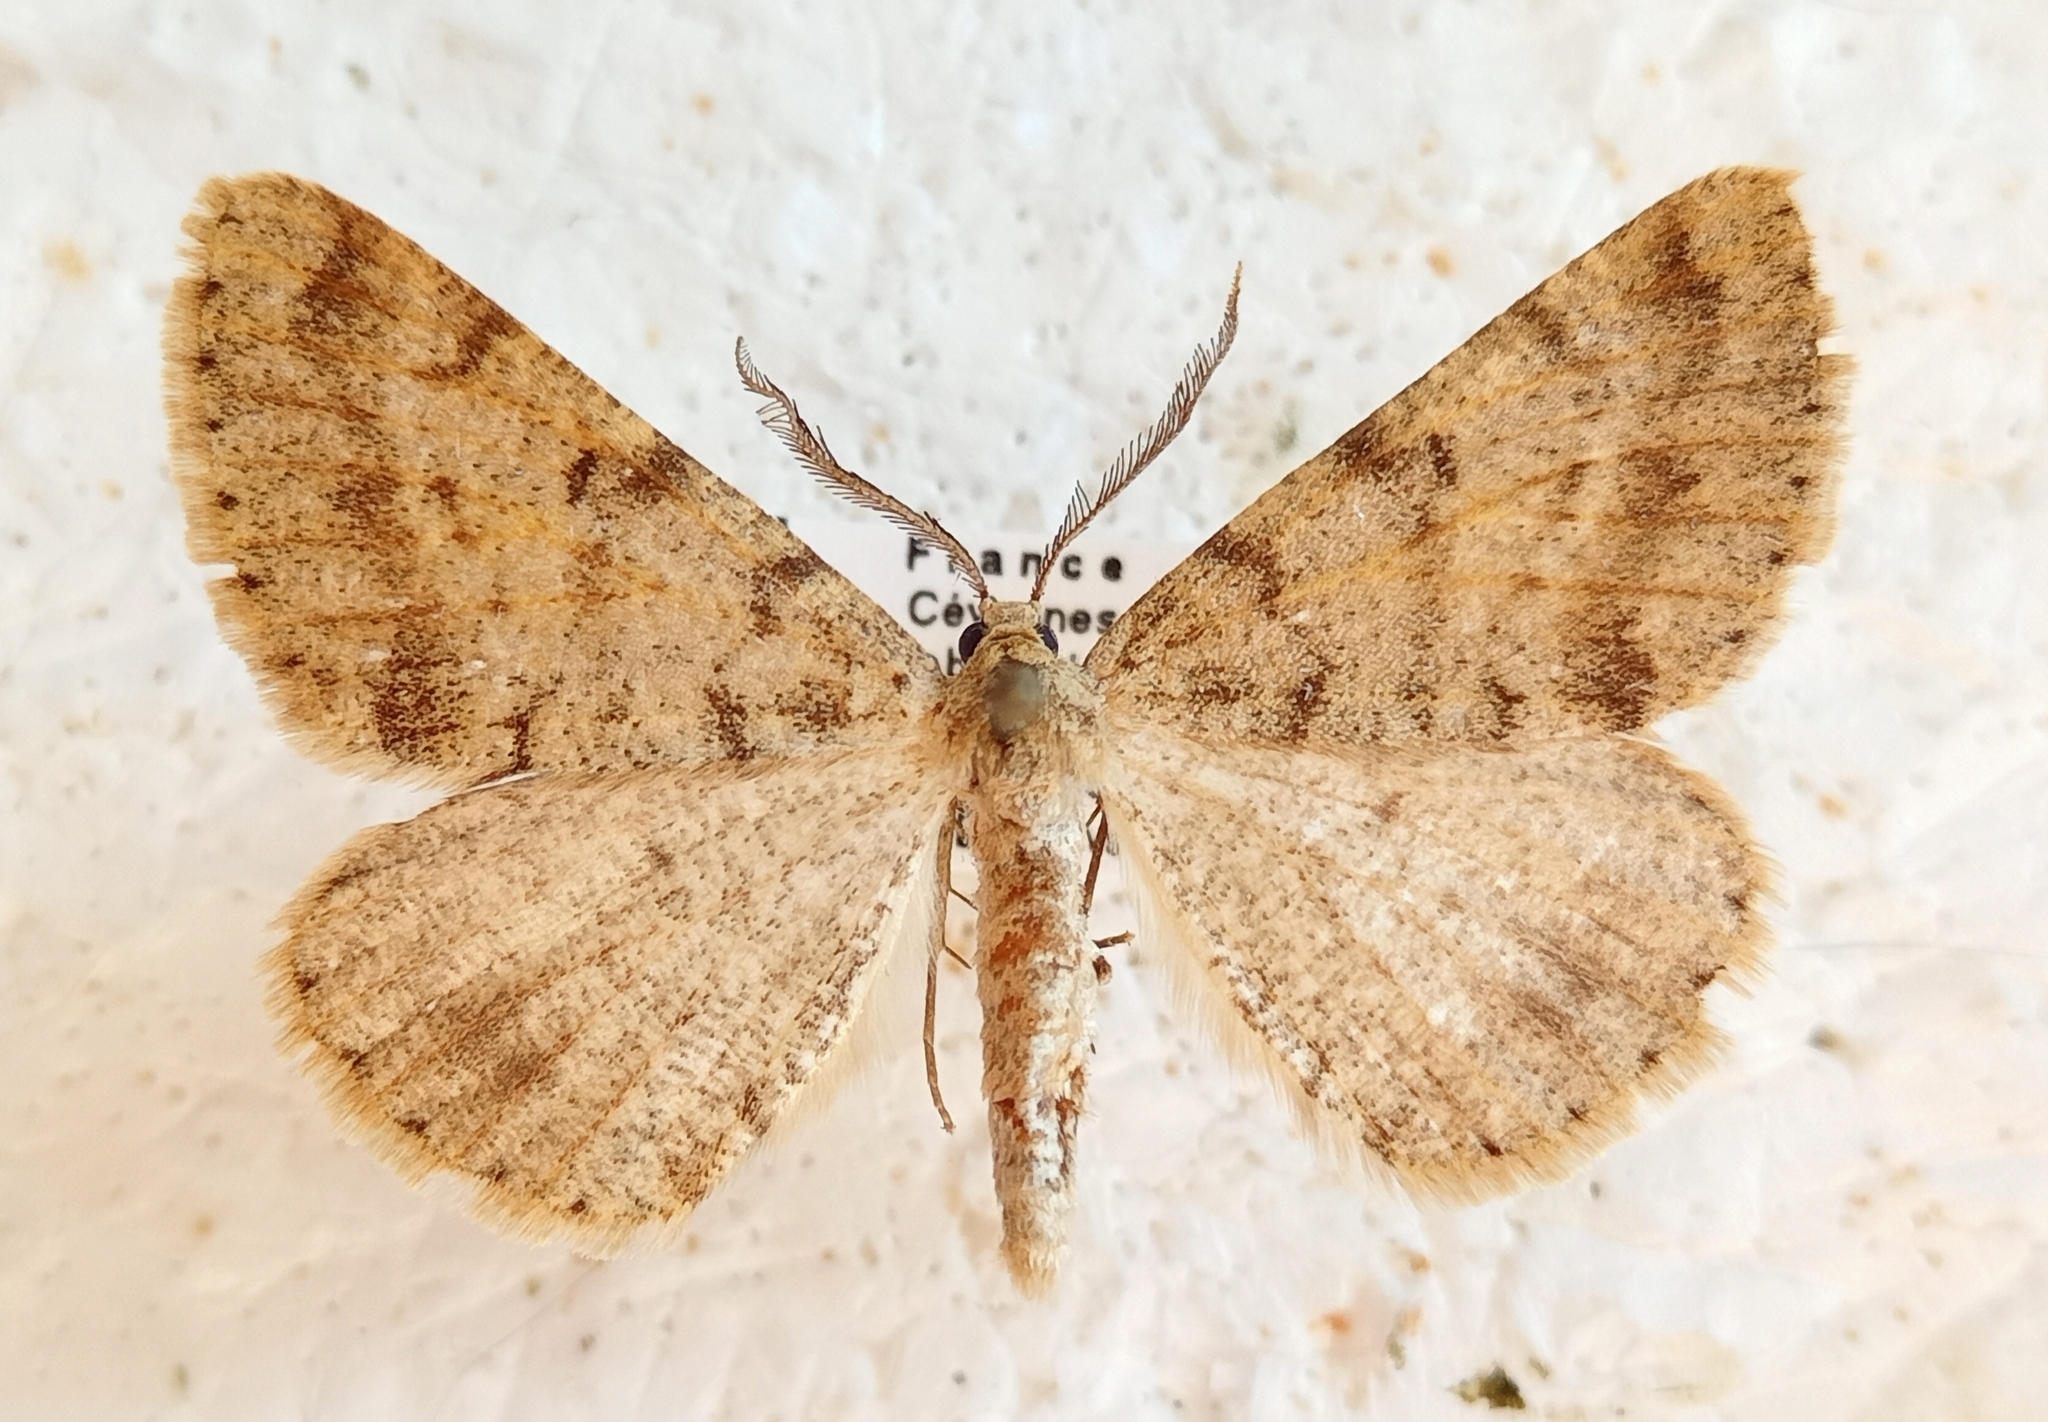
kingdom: Animalia
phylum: Arthropoda
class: Insecta
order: Lepidoptera
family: Geometridae
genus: Isturgia
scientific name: Isturgia miniosaria
